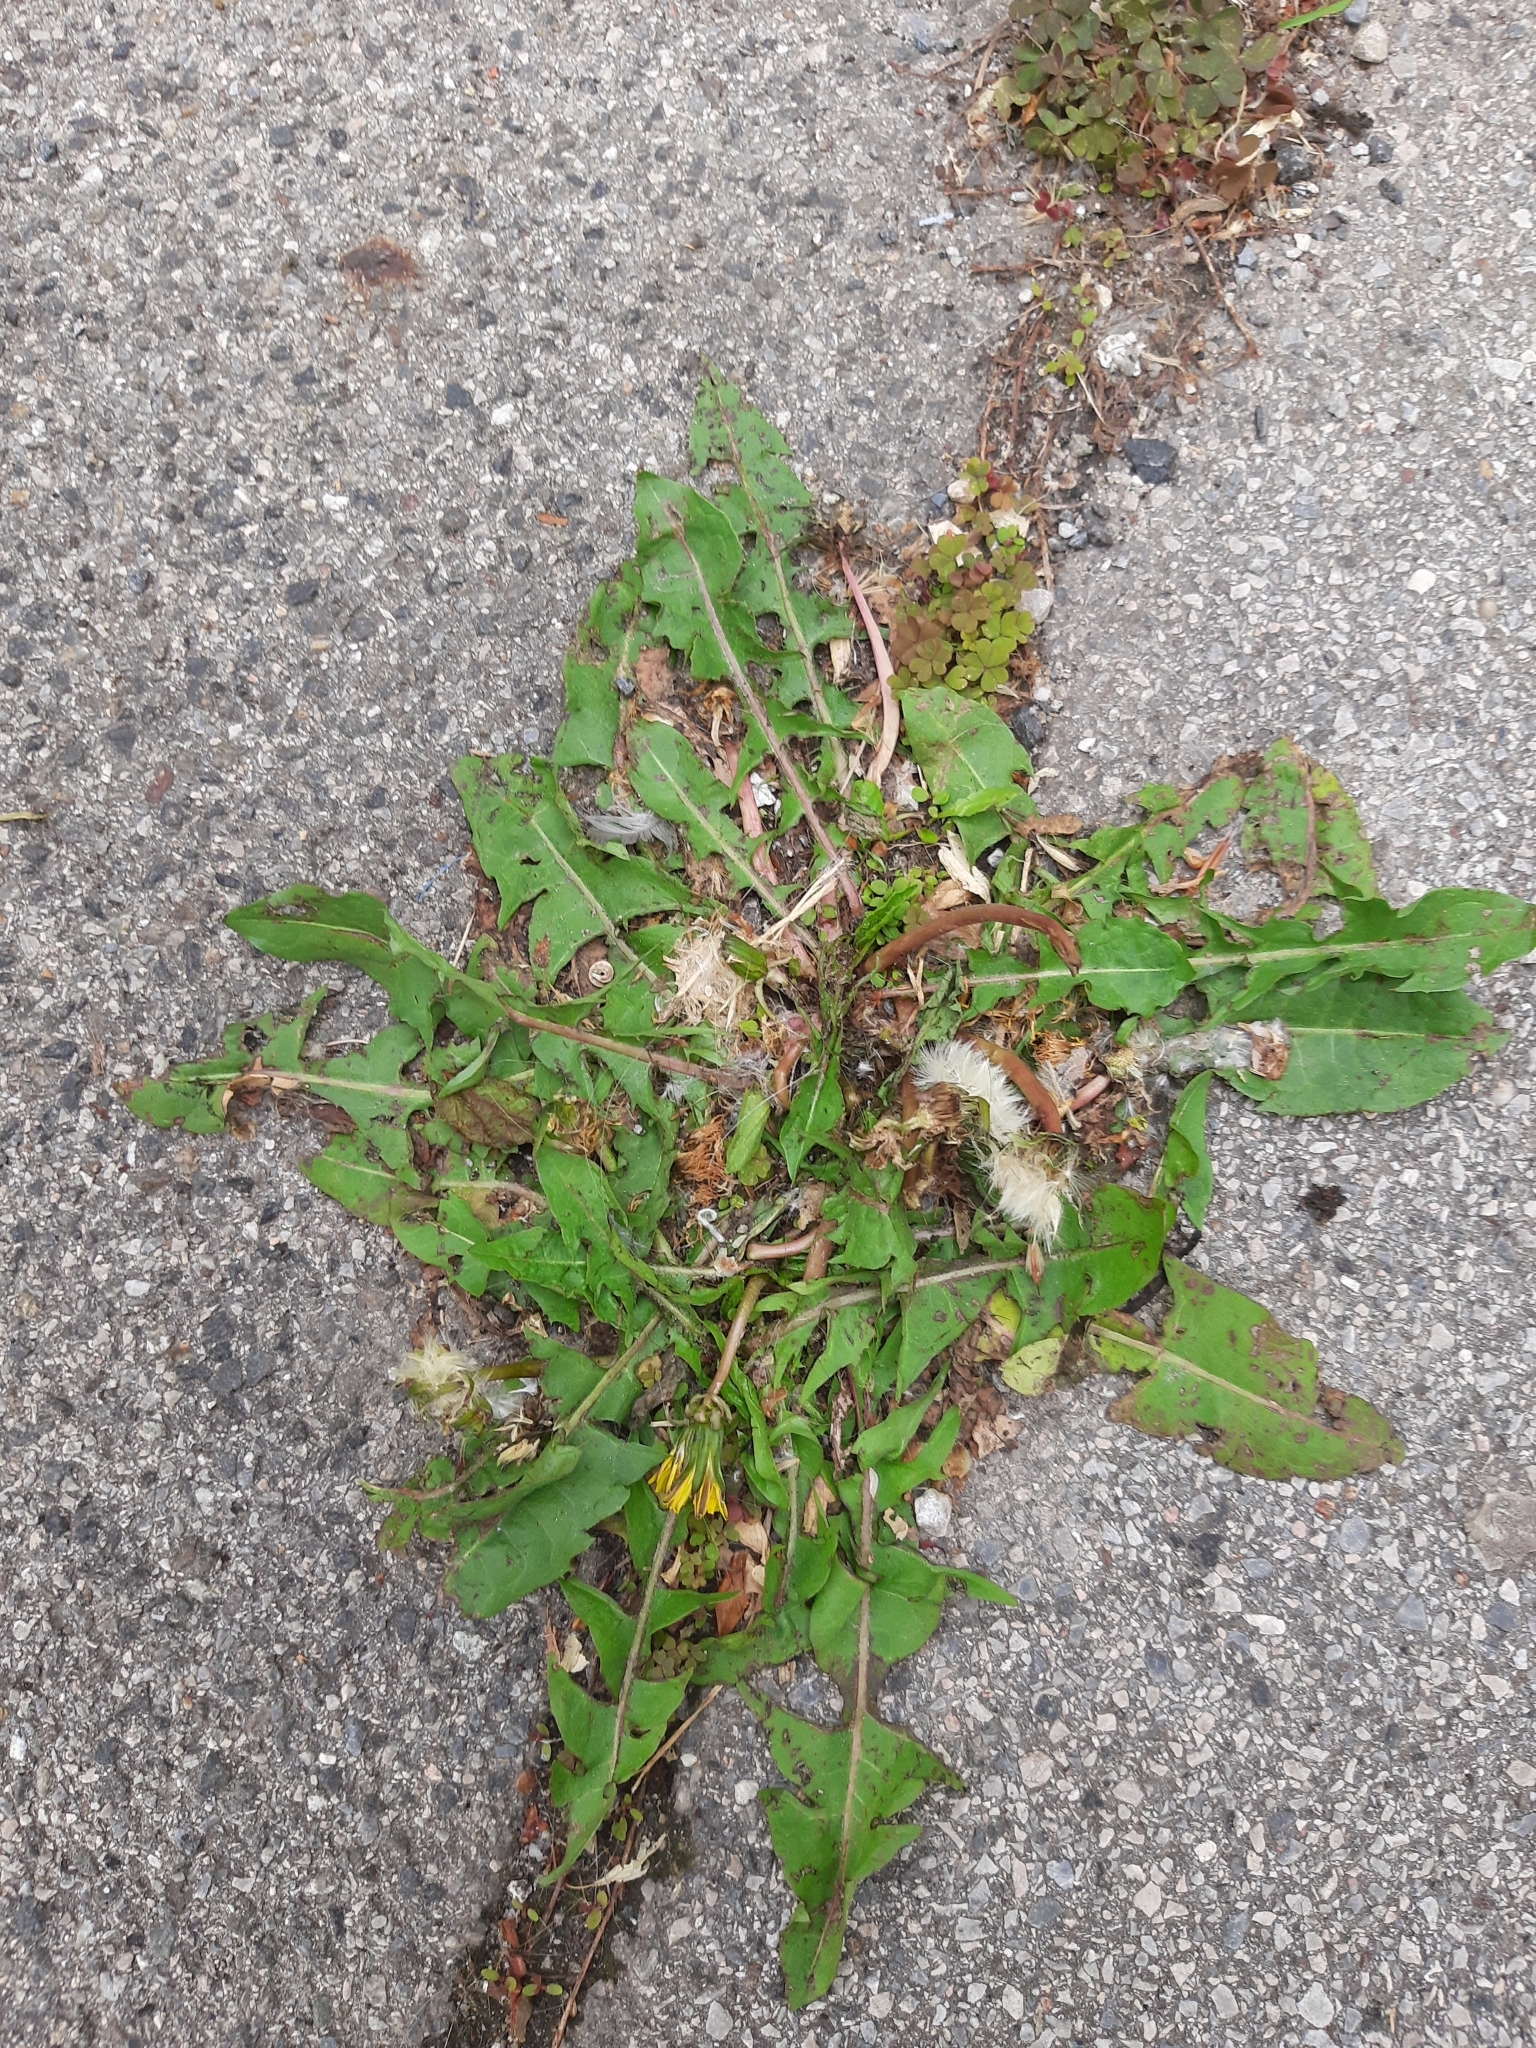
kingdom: Plantae
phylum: Tracheophyta
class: Magnoliopsida
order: Asterales
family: Asteraceae
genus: Taraxacum
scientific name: Taraxacum
